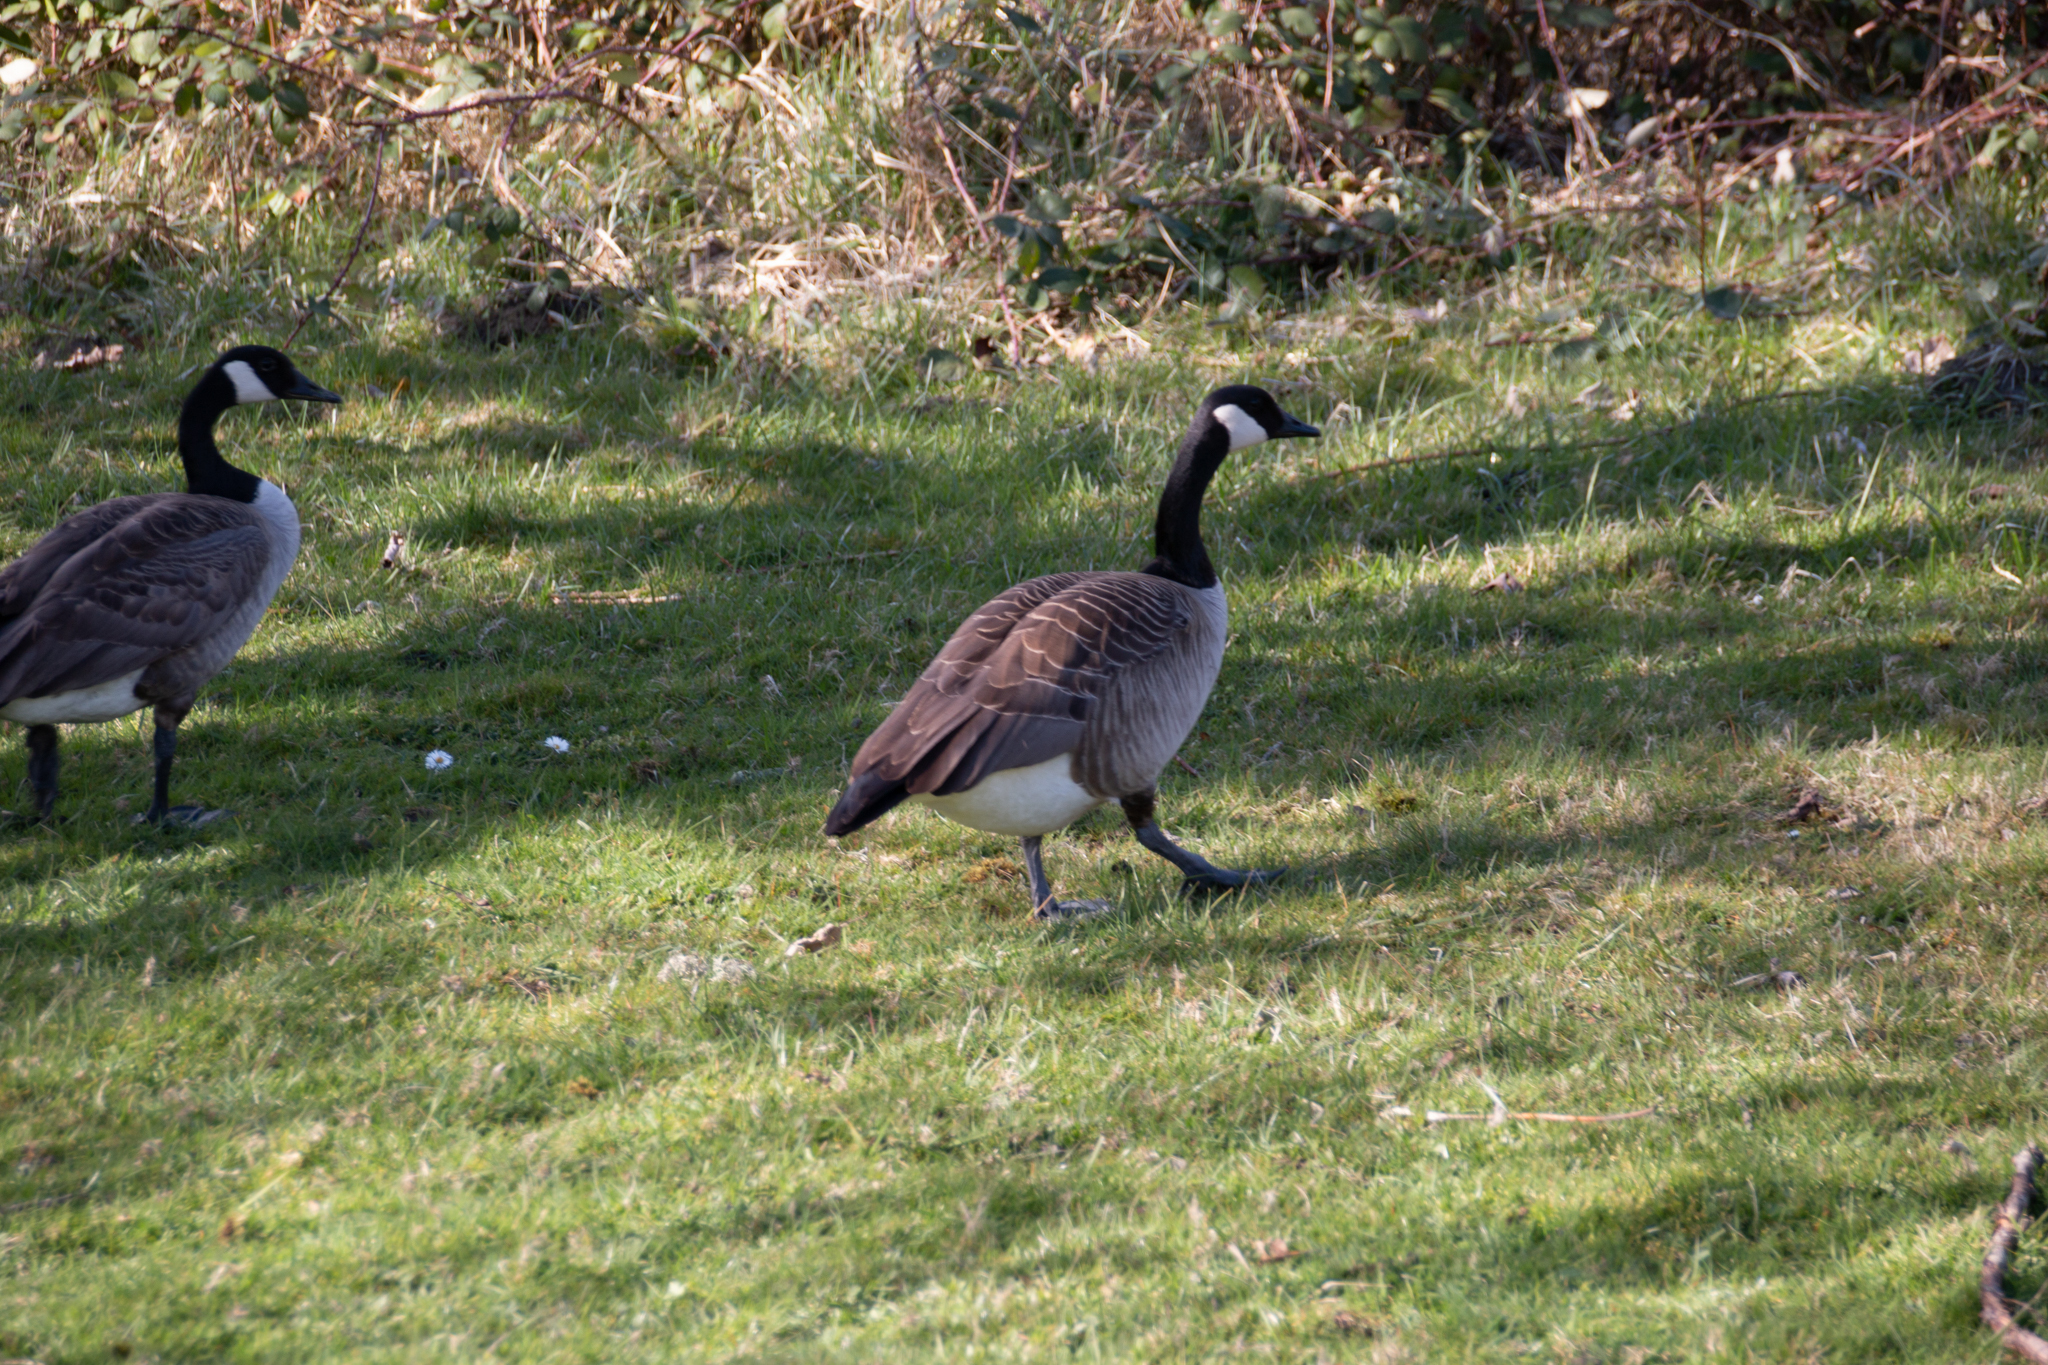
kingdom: Animalia
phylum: Chordata
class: Aves
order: Anseriformes
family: Anatidae
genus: Branta
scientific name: Branta canadensis
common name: Canada goose
